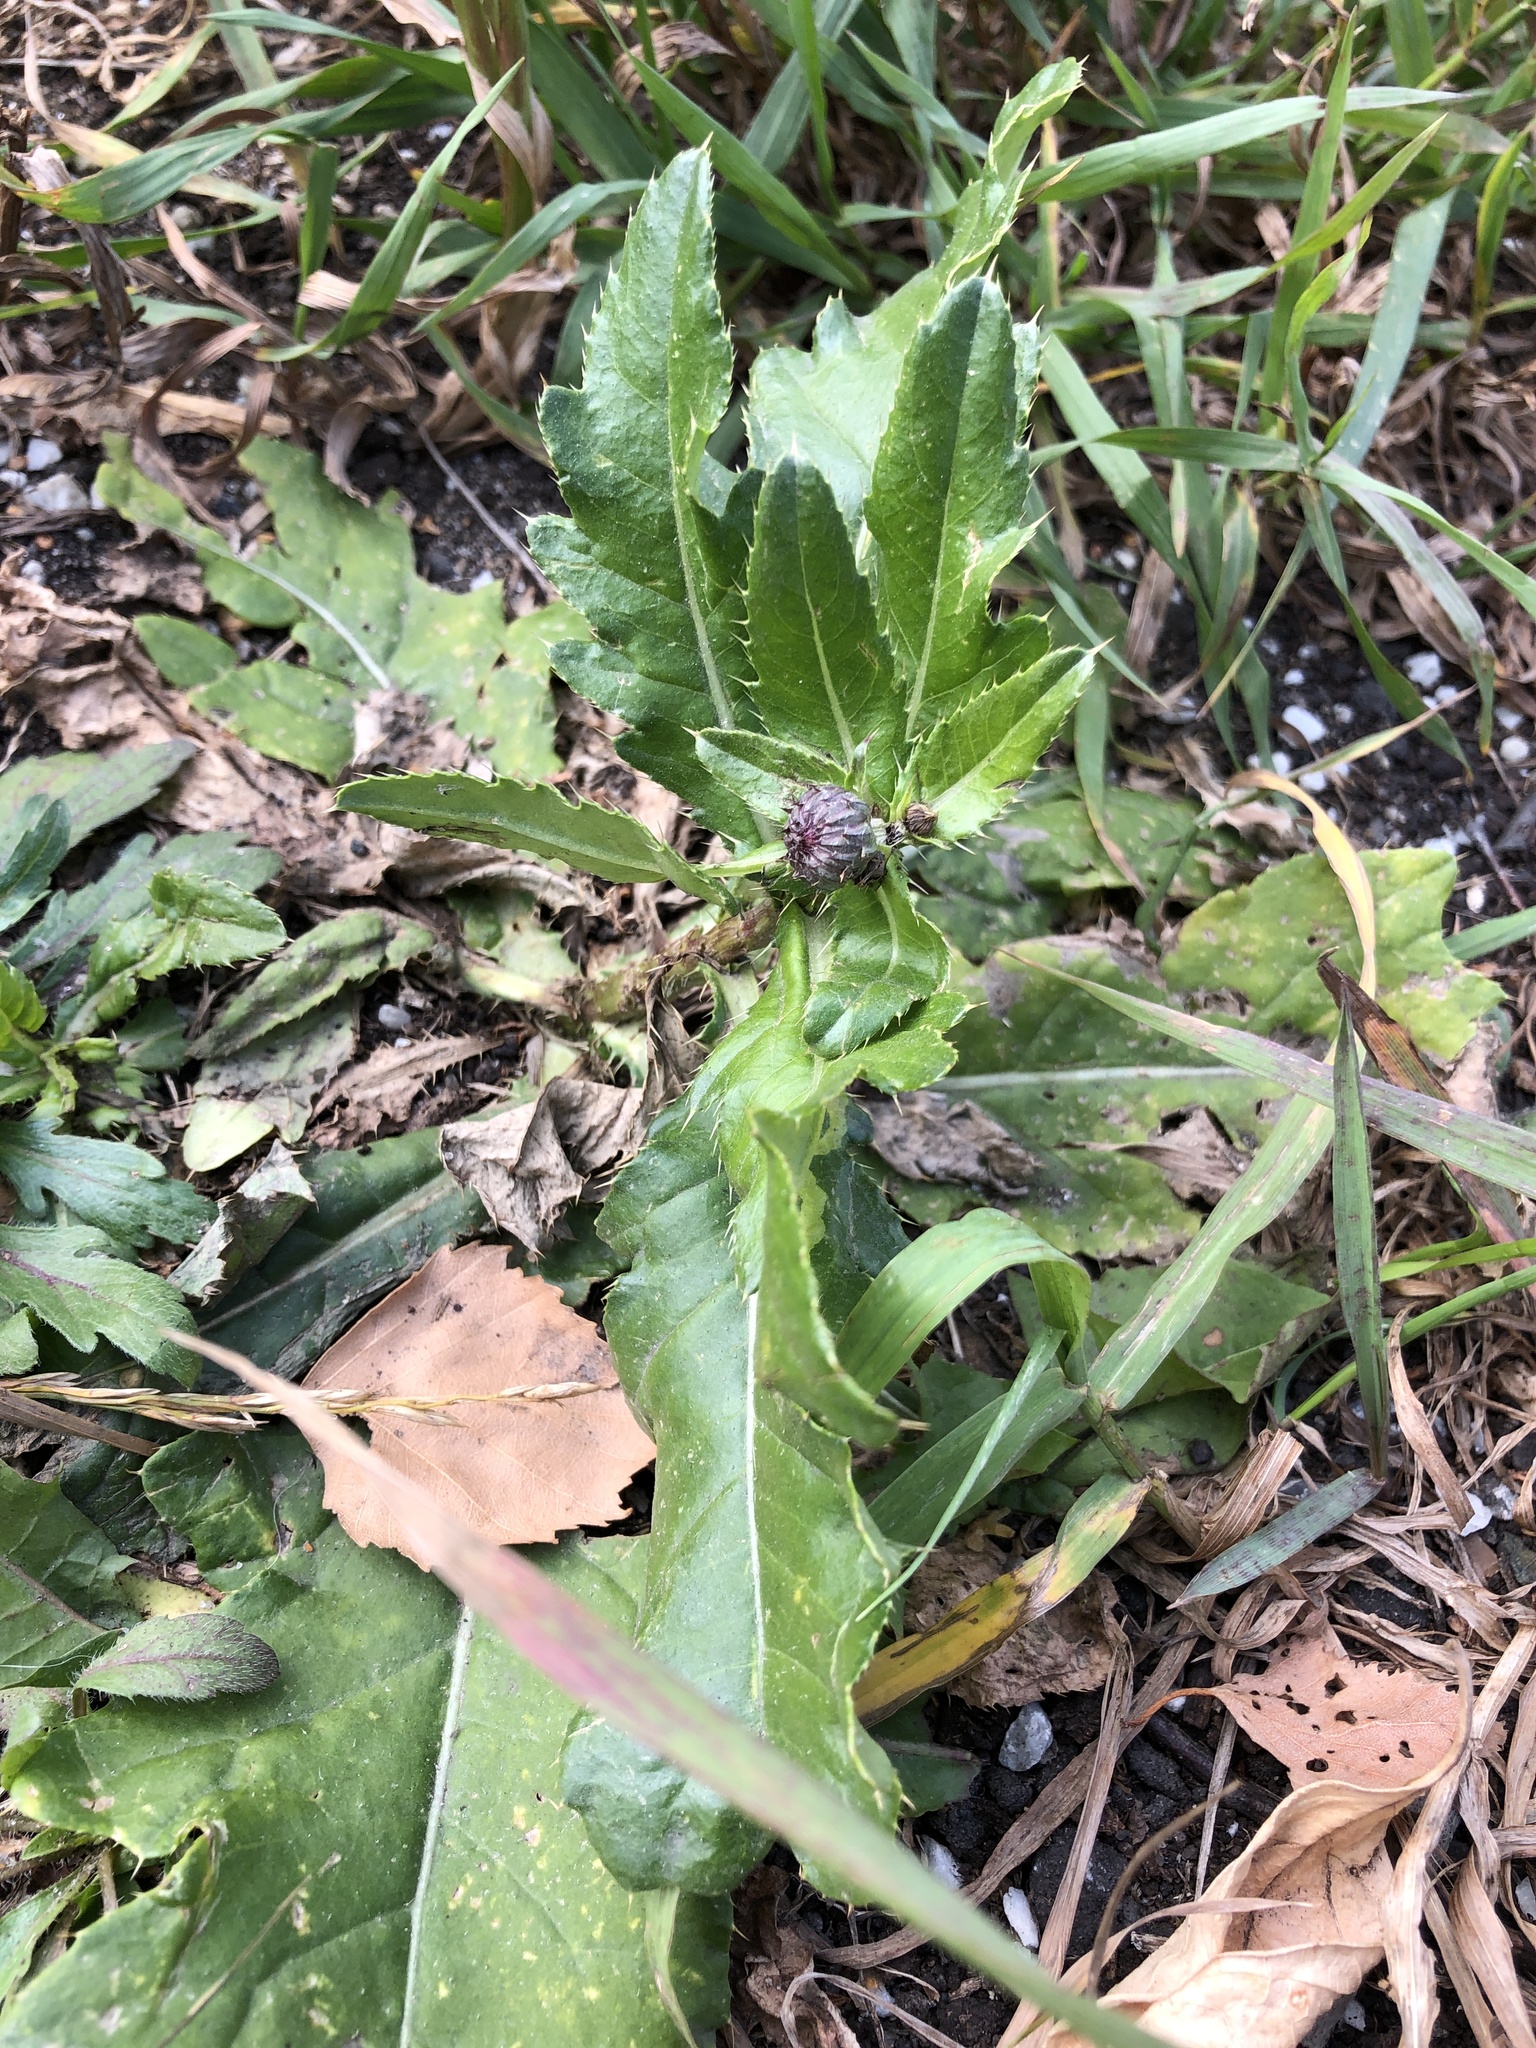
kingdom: Plantae
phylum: Tracheophyta
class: Magnoliopsida
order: Asterales
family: Asteraceae
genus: Cirsium
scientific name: Cirsium arvense
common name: Creeping thistle
